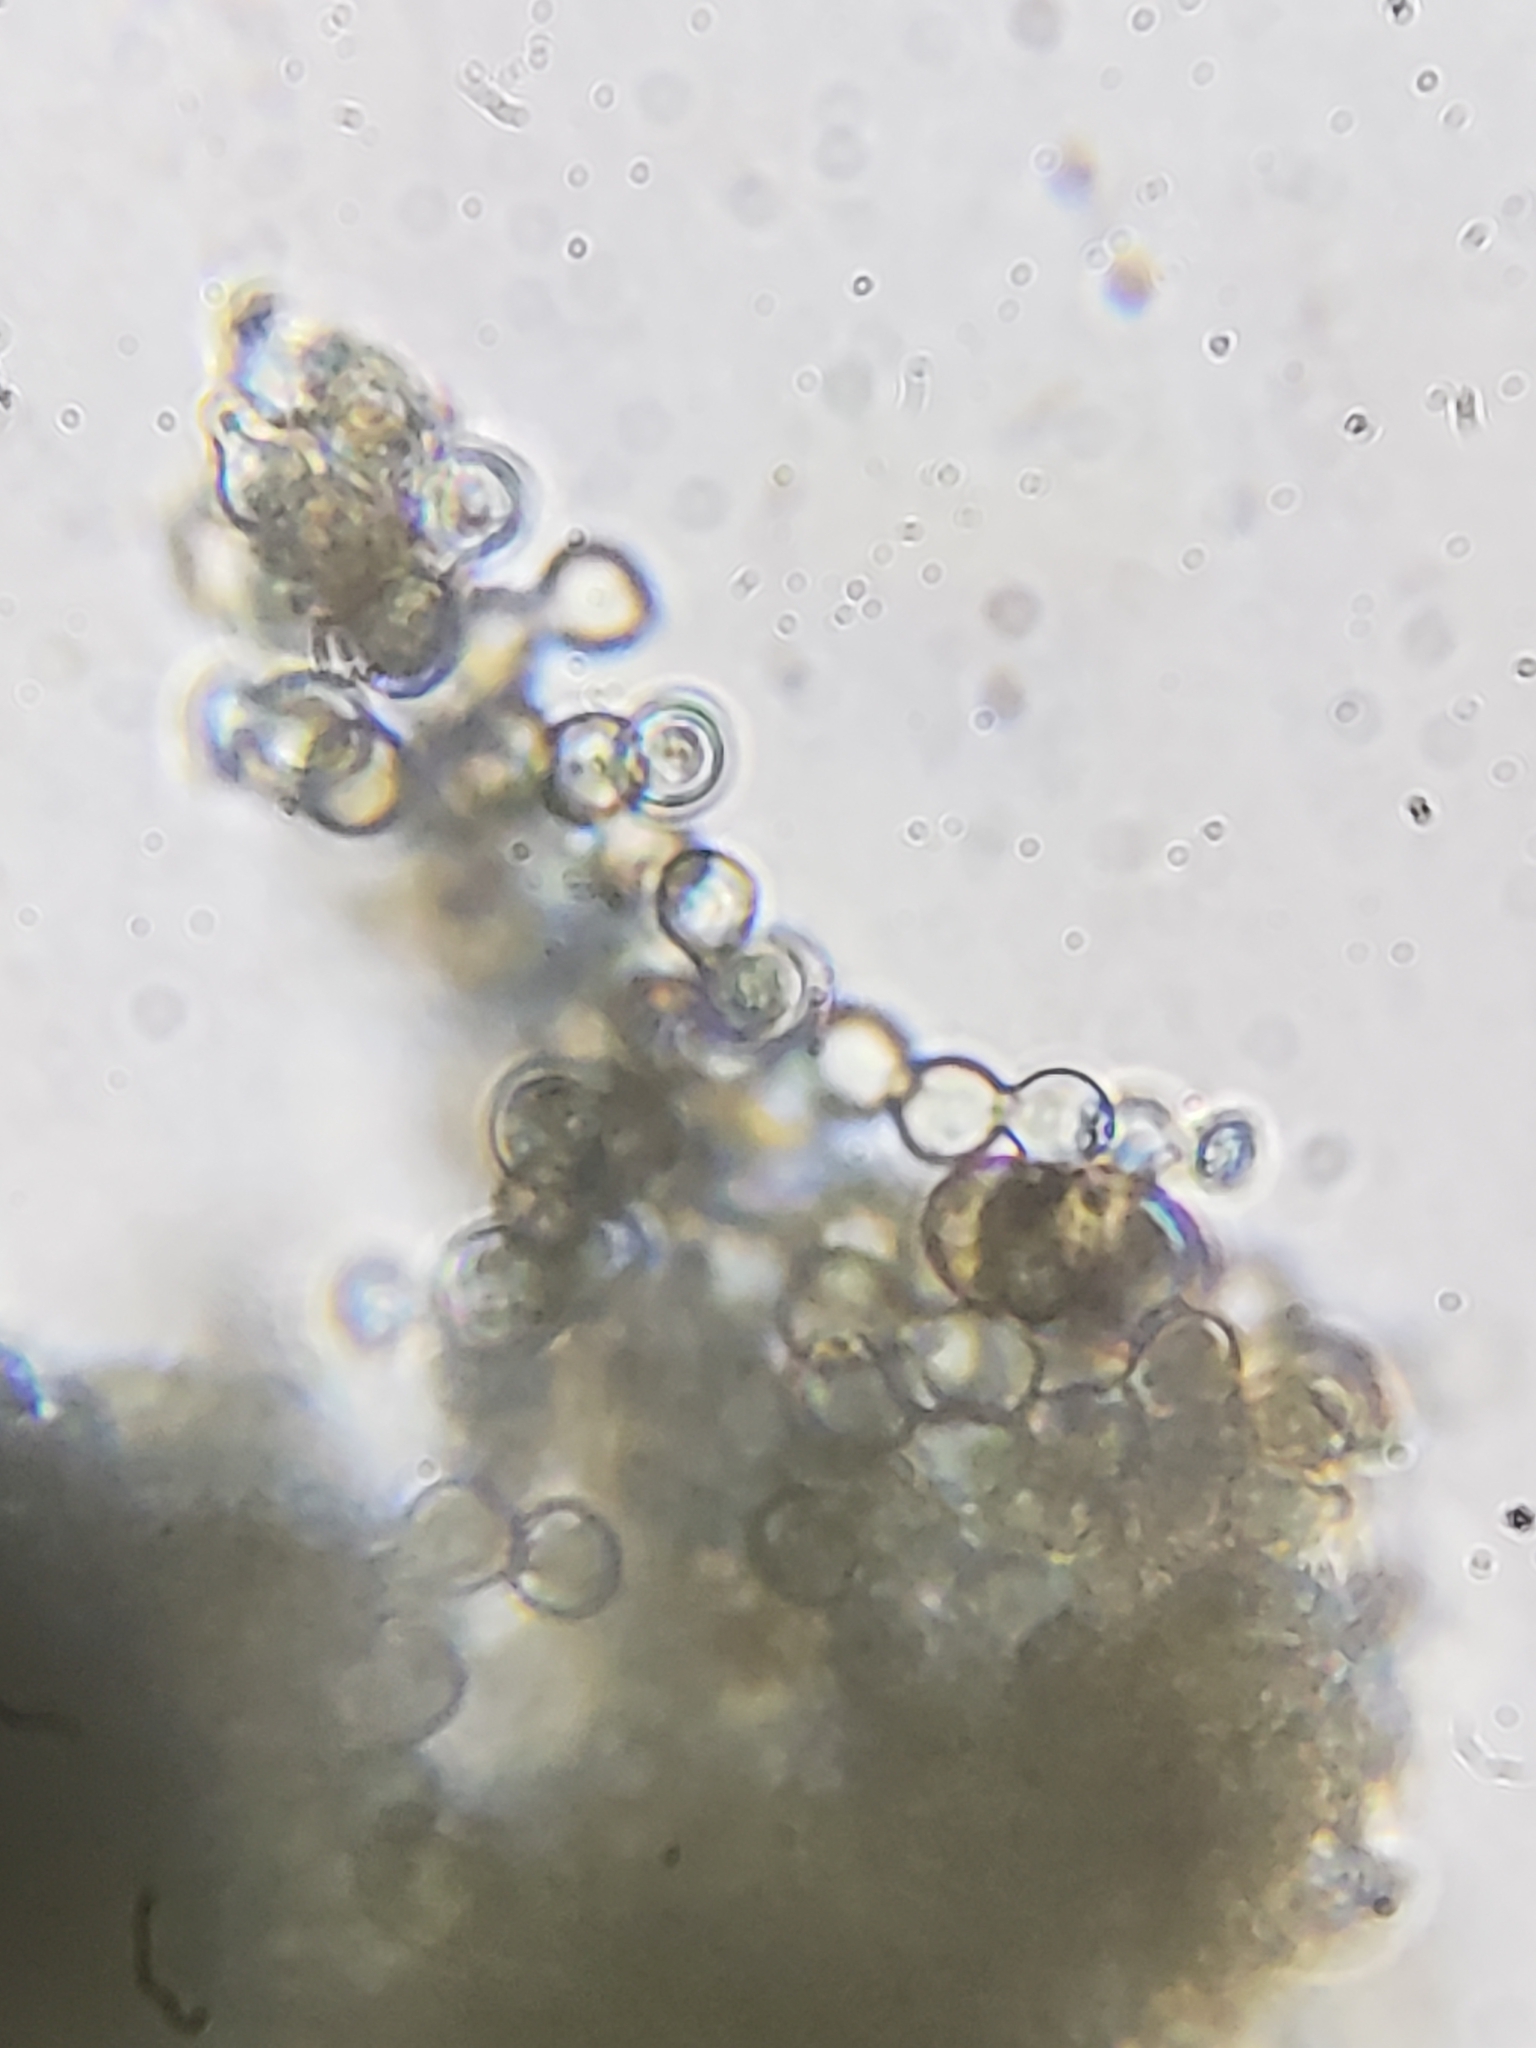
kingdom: Fungi
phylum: Ascomycota
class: Leotiomycetes
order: Helotiales
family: Hyaloscyphaceae
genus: Hyaloscypha
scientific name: Hyaloscypha leucostigma
